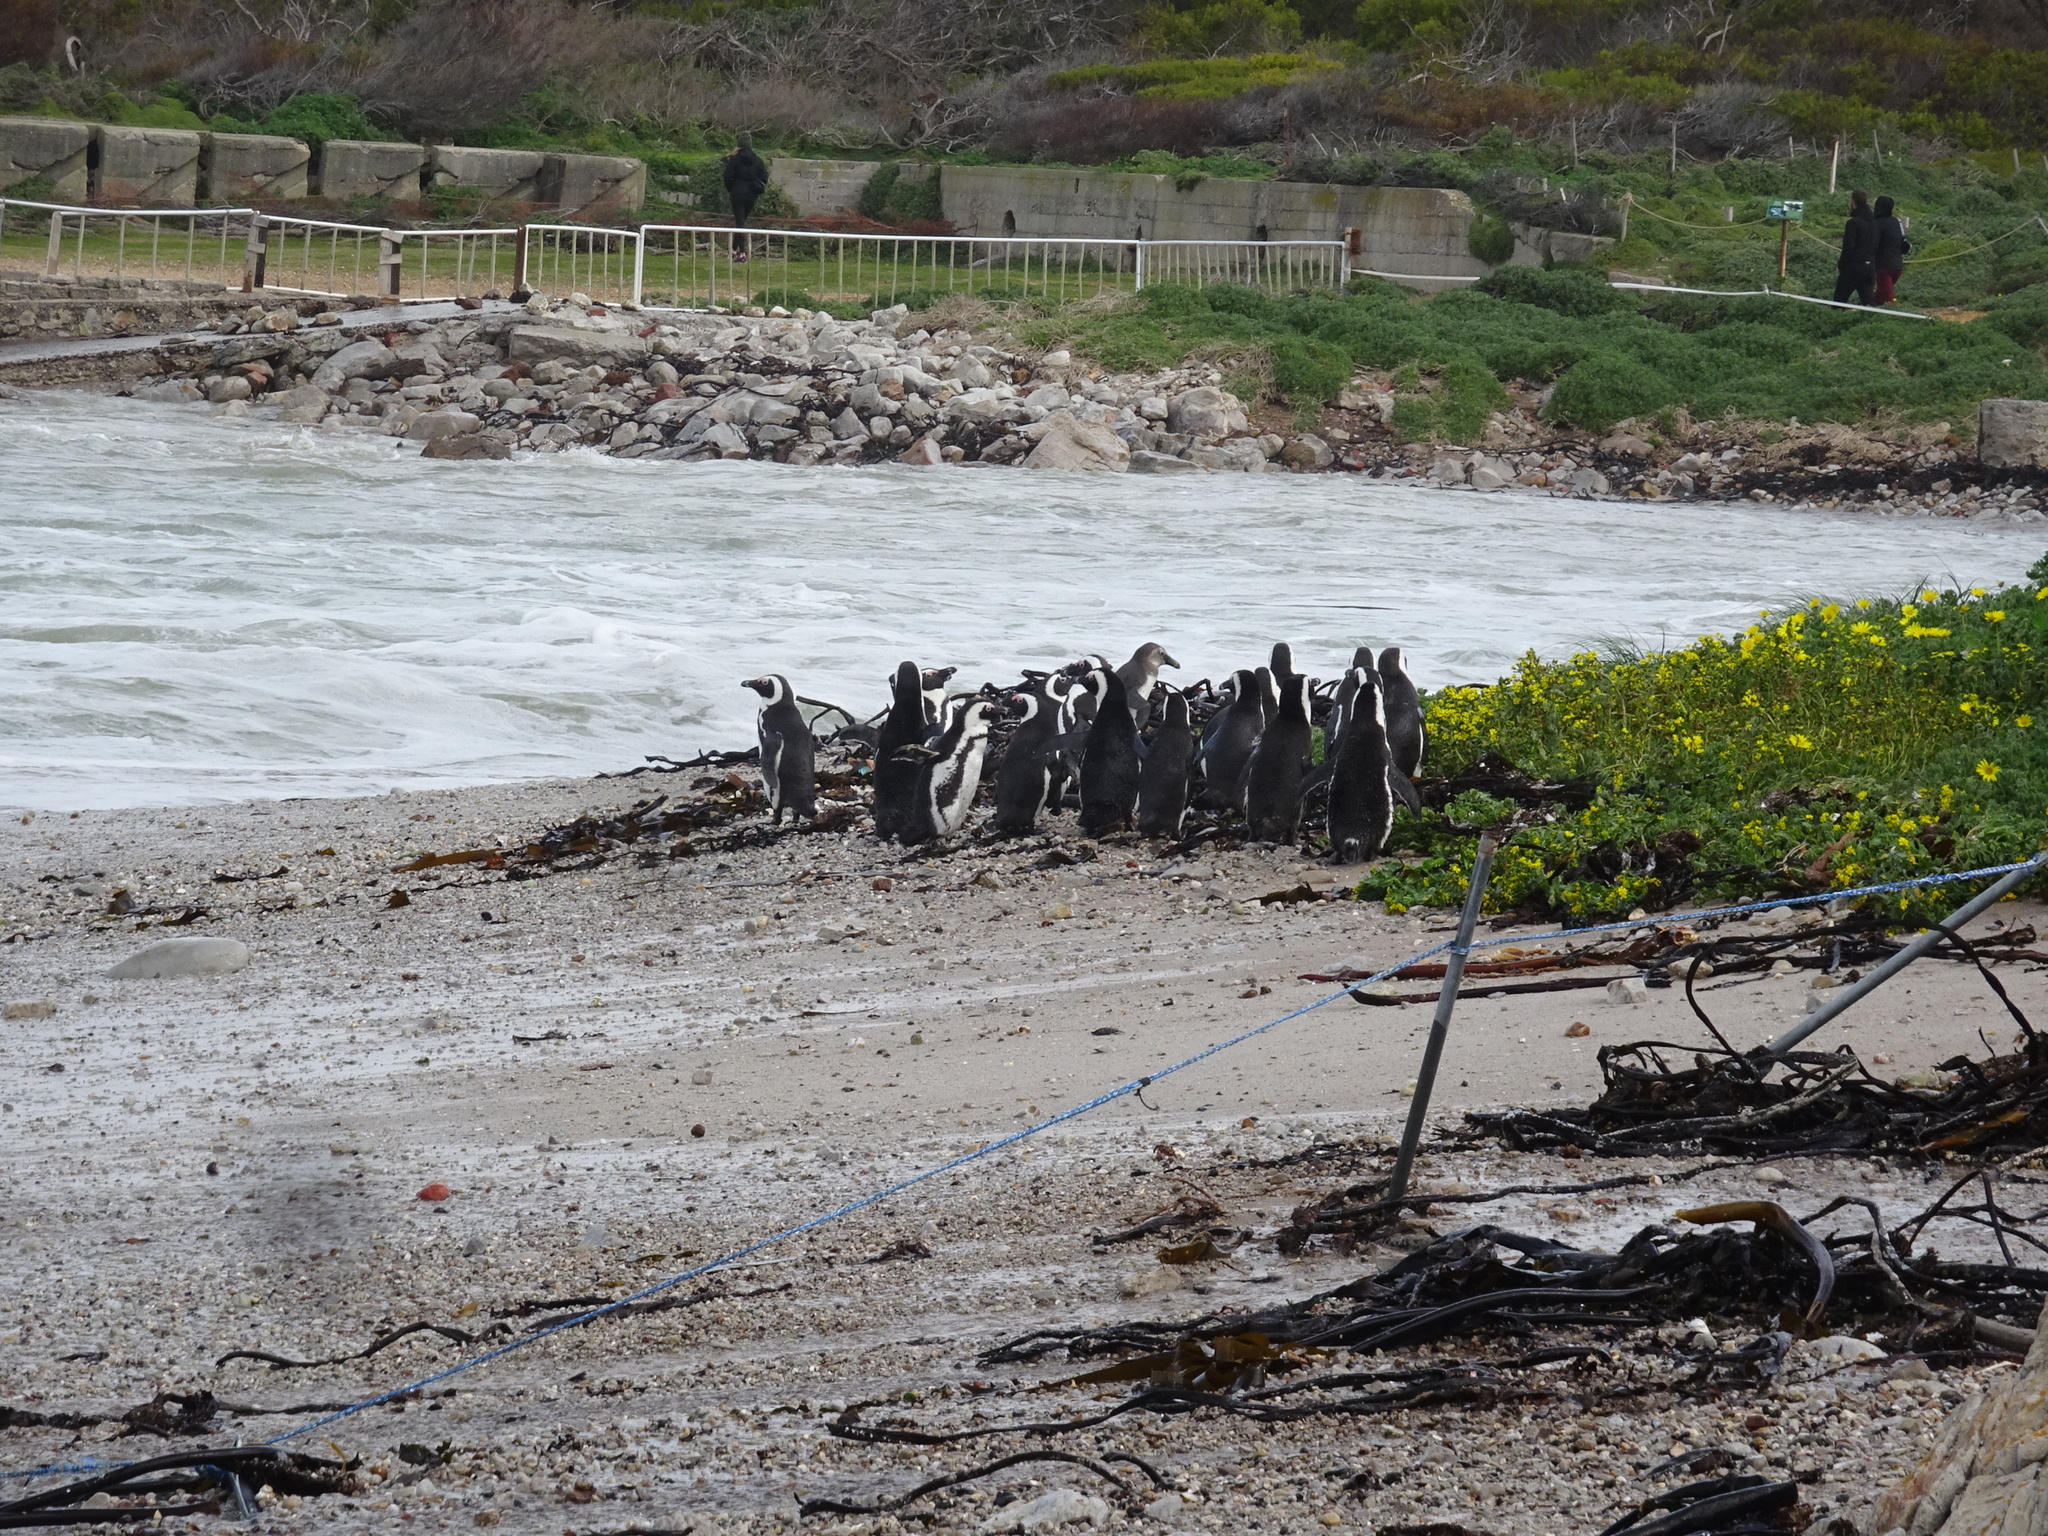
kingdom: Animalia
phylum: Chordata
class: Aves
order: Sphenisciformes
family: Spheniscidae
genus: Spheniscus
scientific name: Spheniscus demersus
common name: African penguin
